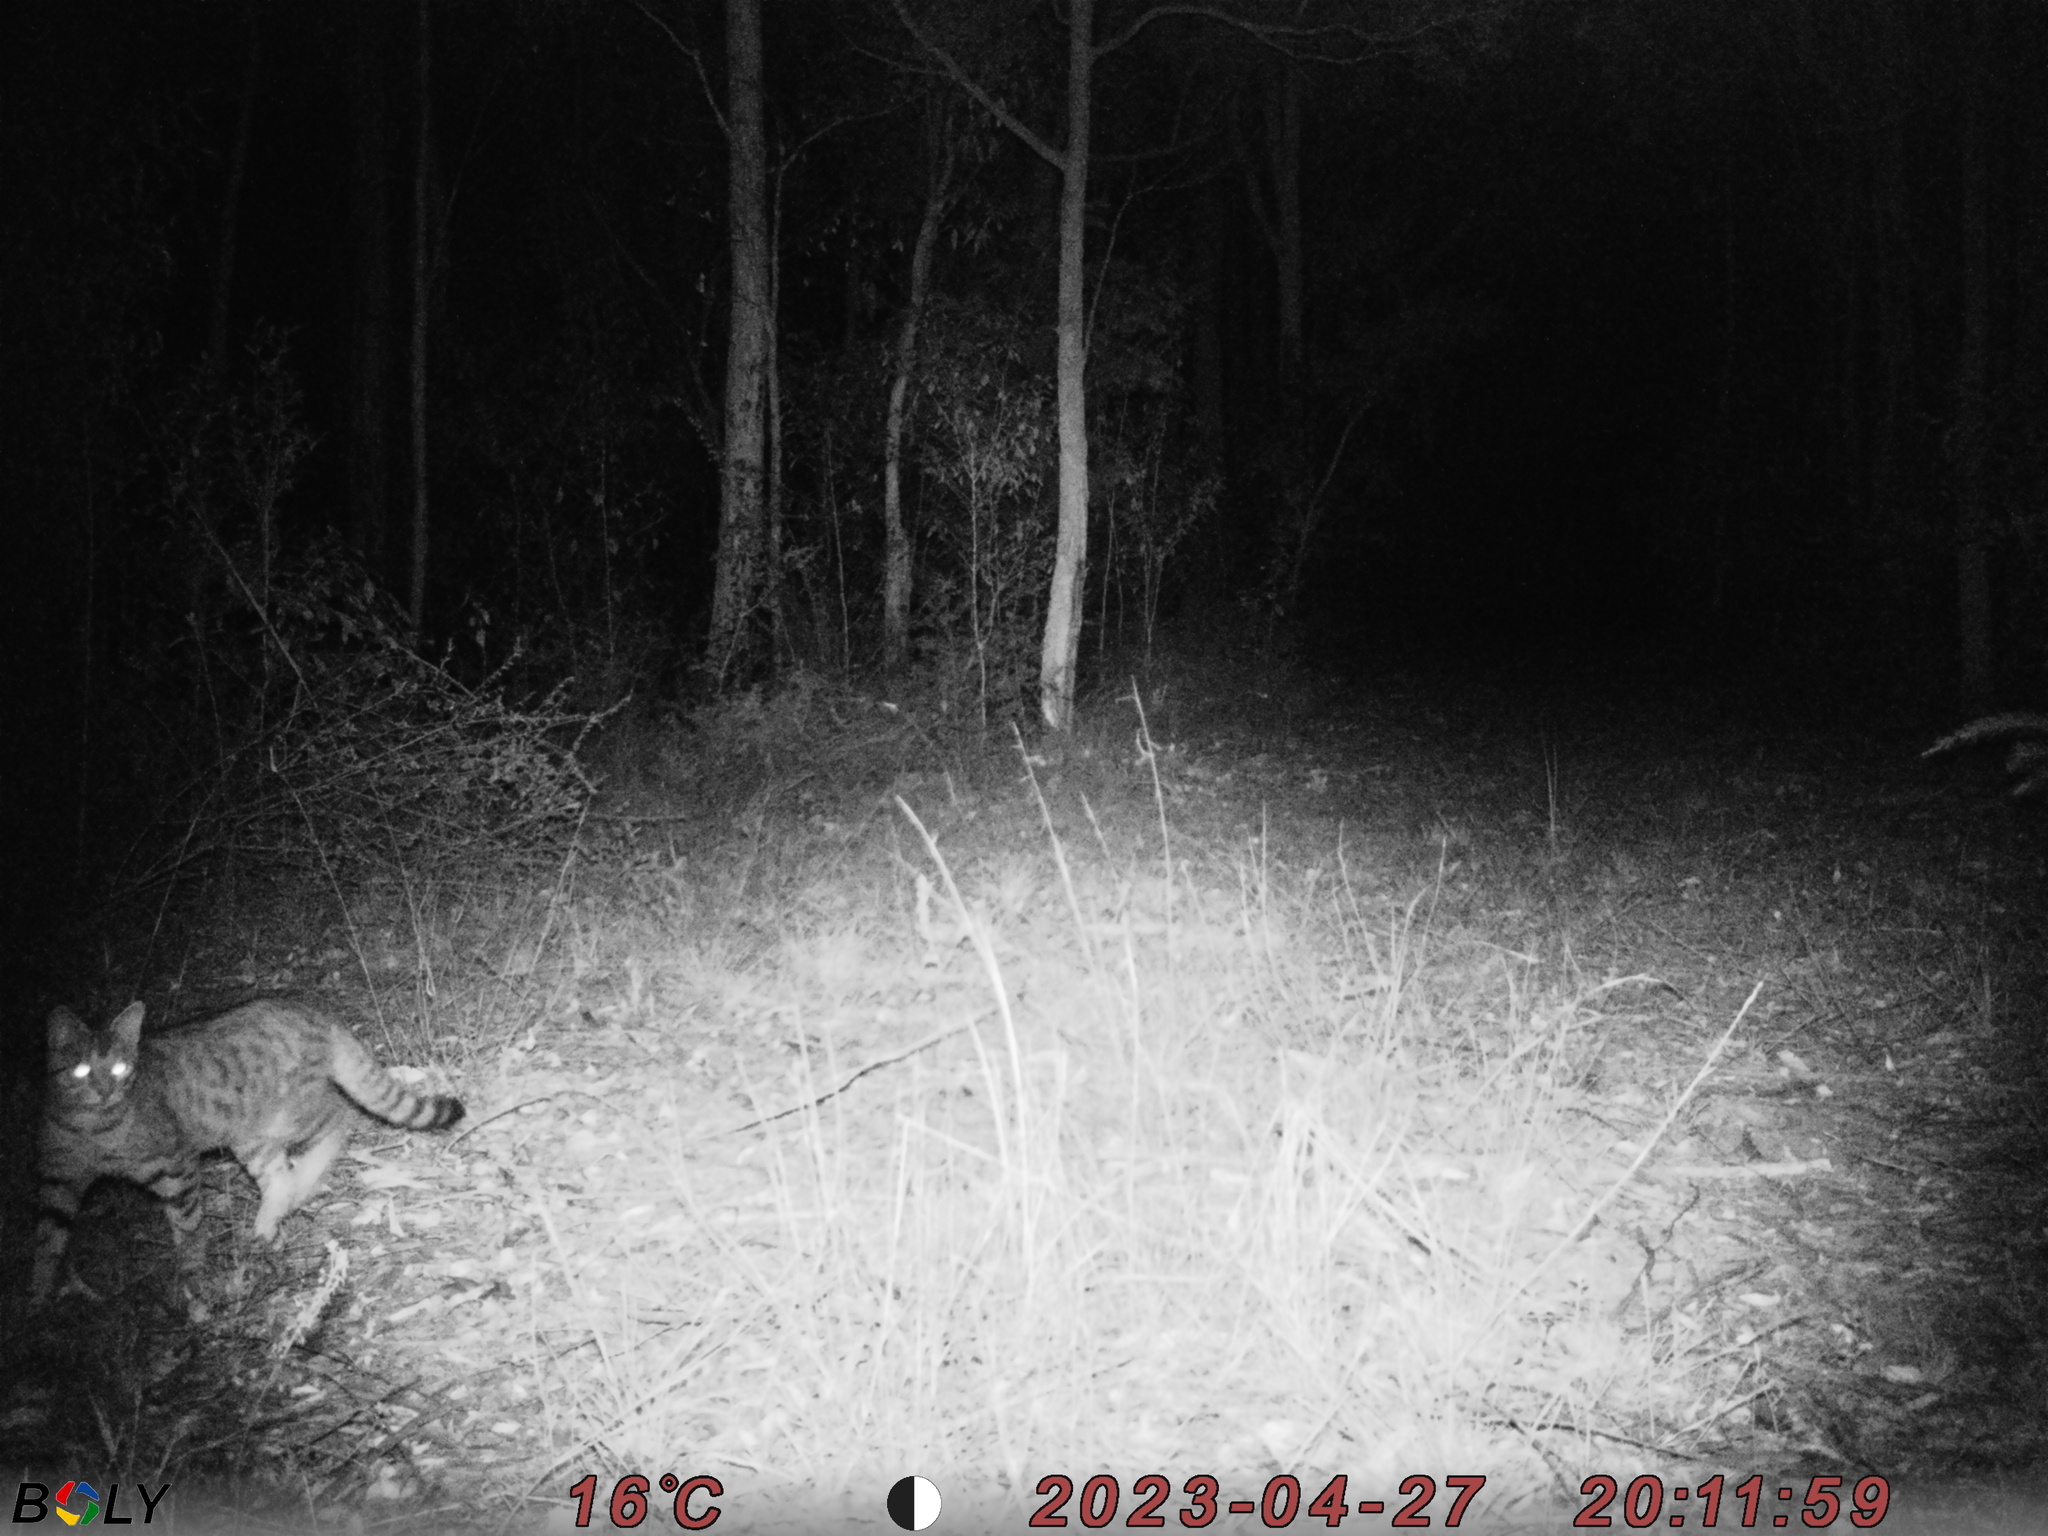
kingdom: Animalia
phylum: Chordata
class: Mammalia
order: Carnivora
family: Felidae
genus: Felis
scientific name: Felis catus
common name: Domestic cat
